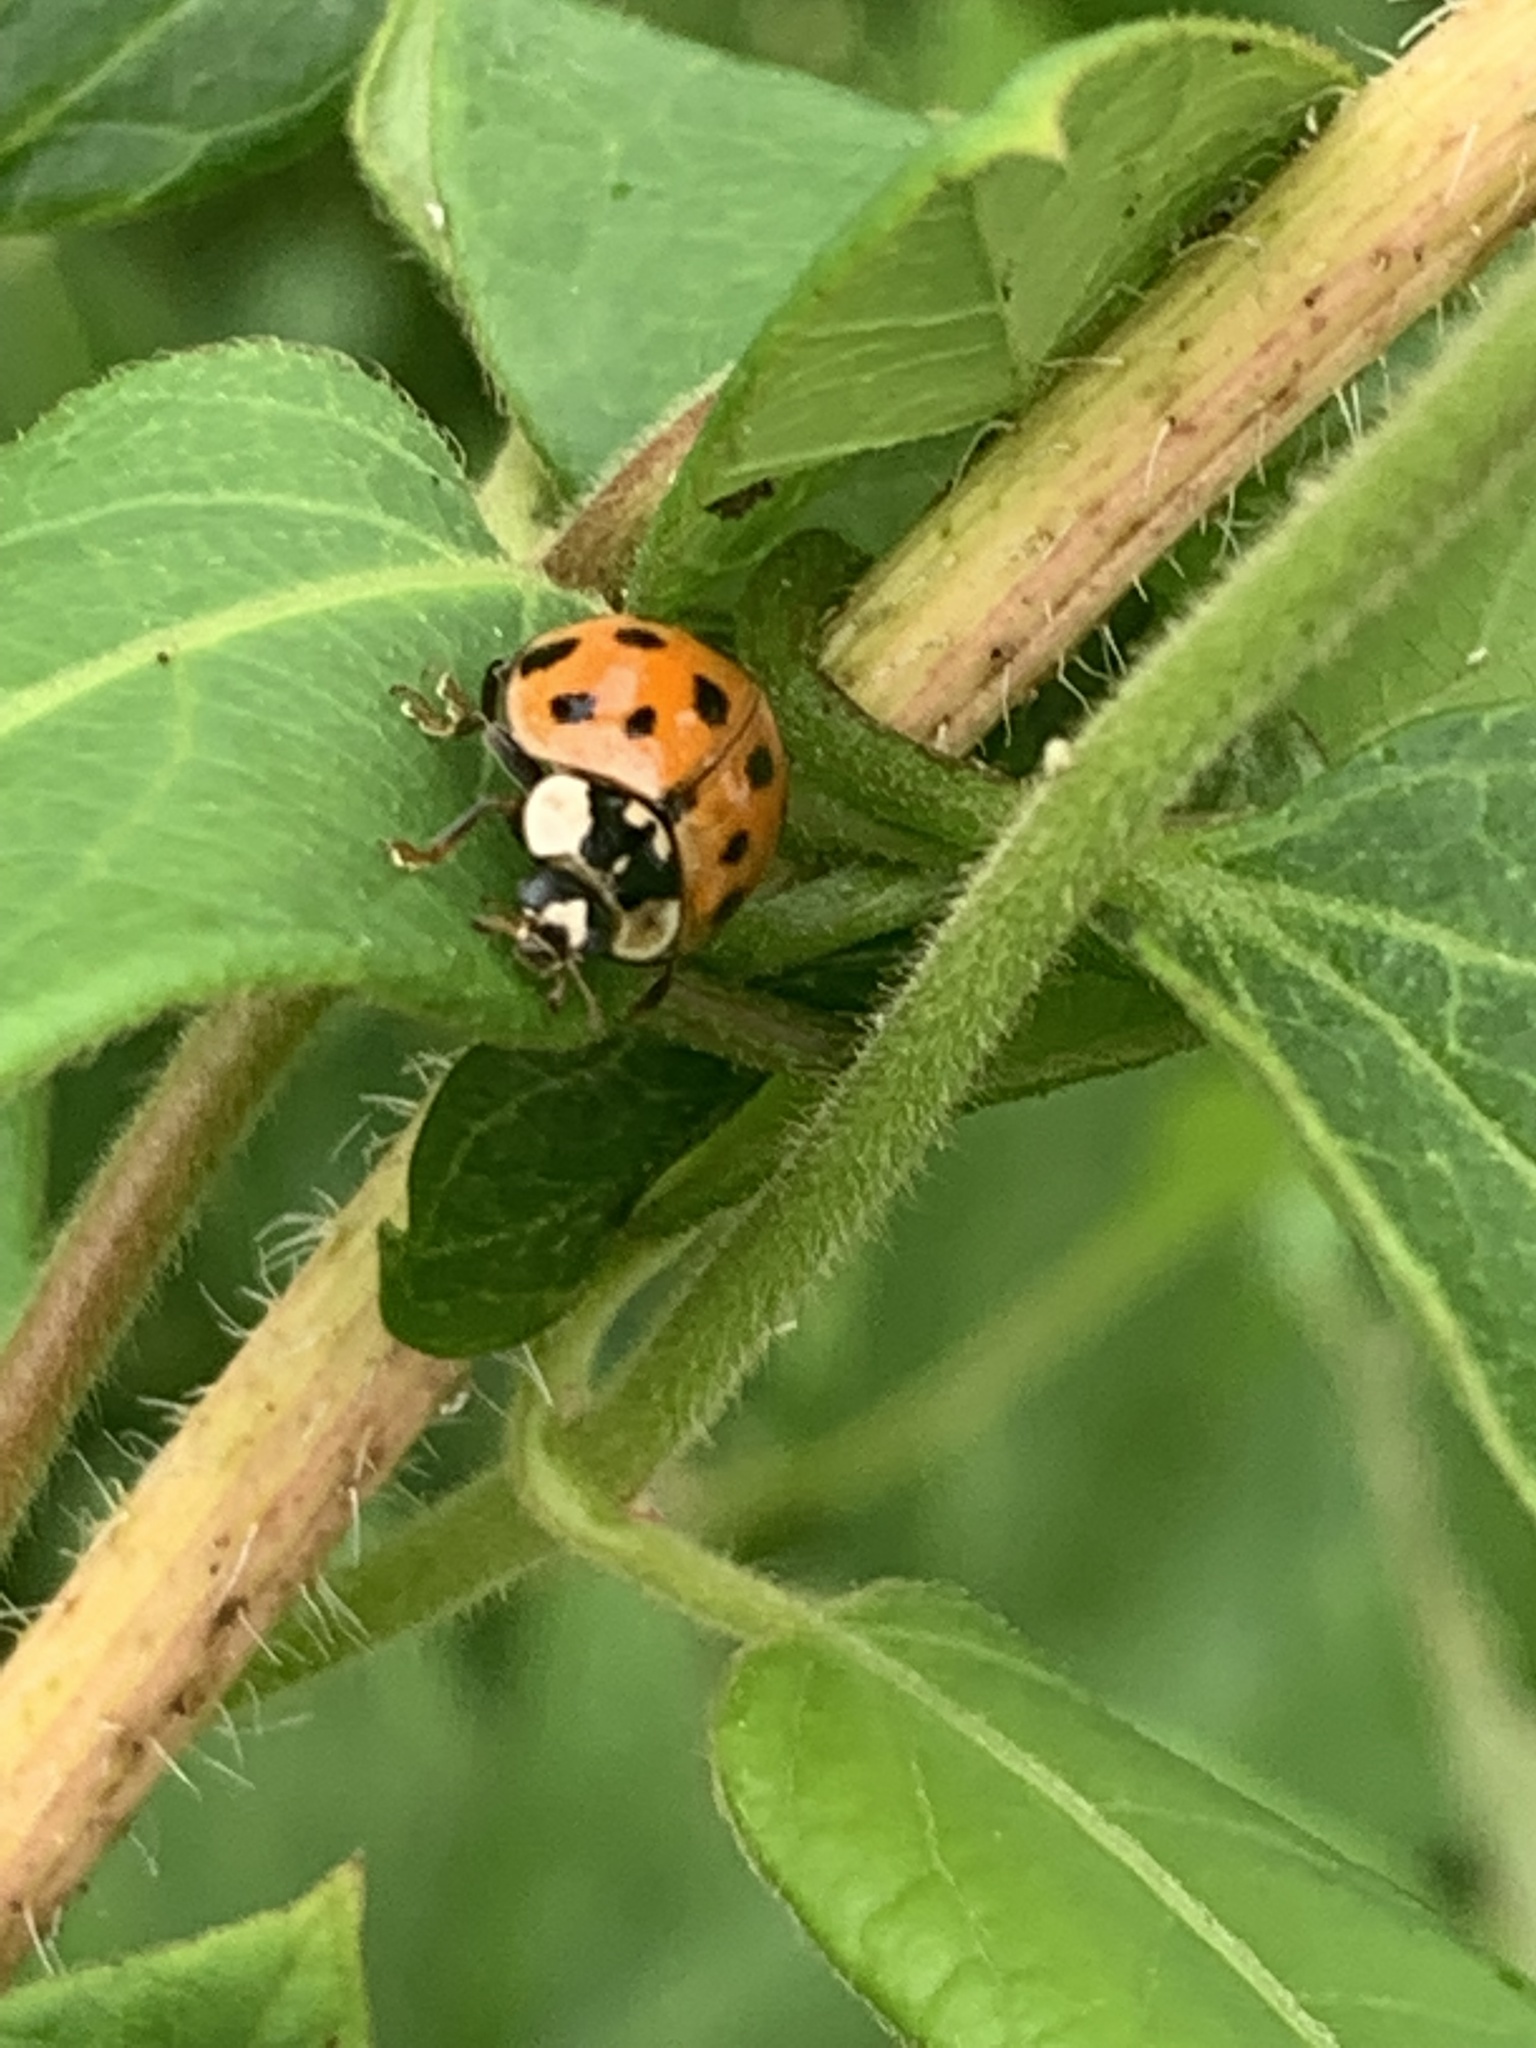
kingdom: Animalia
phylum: Arthropoda
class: Insecta
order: Coleoptera
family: Coccinellidae
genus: Harmonia
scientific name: Harmonia axyridis
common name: Harlequin ladybird
